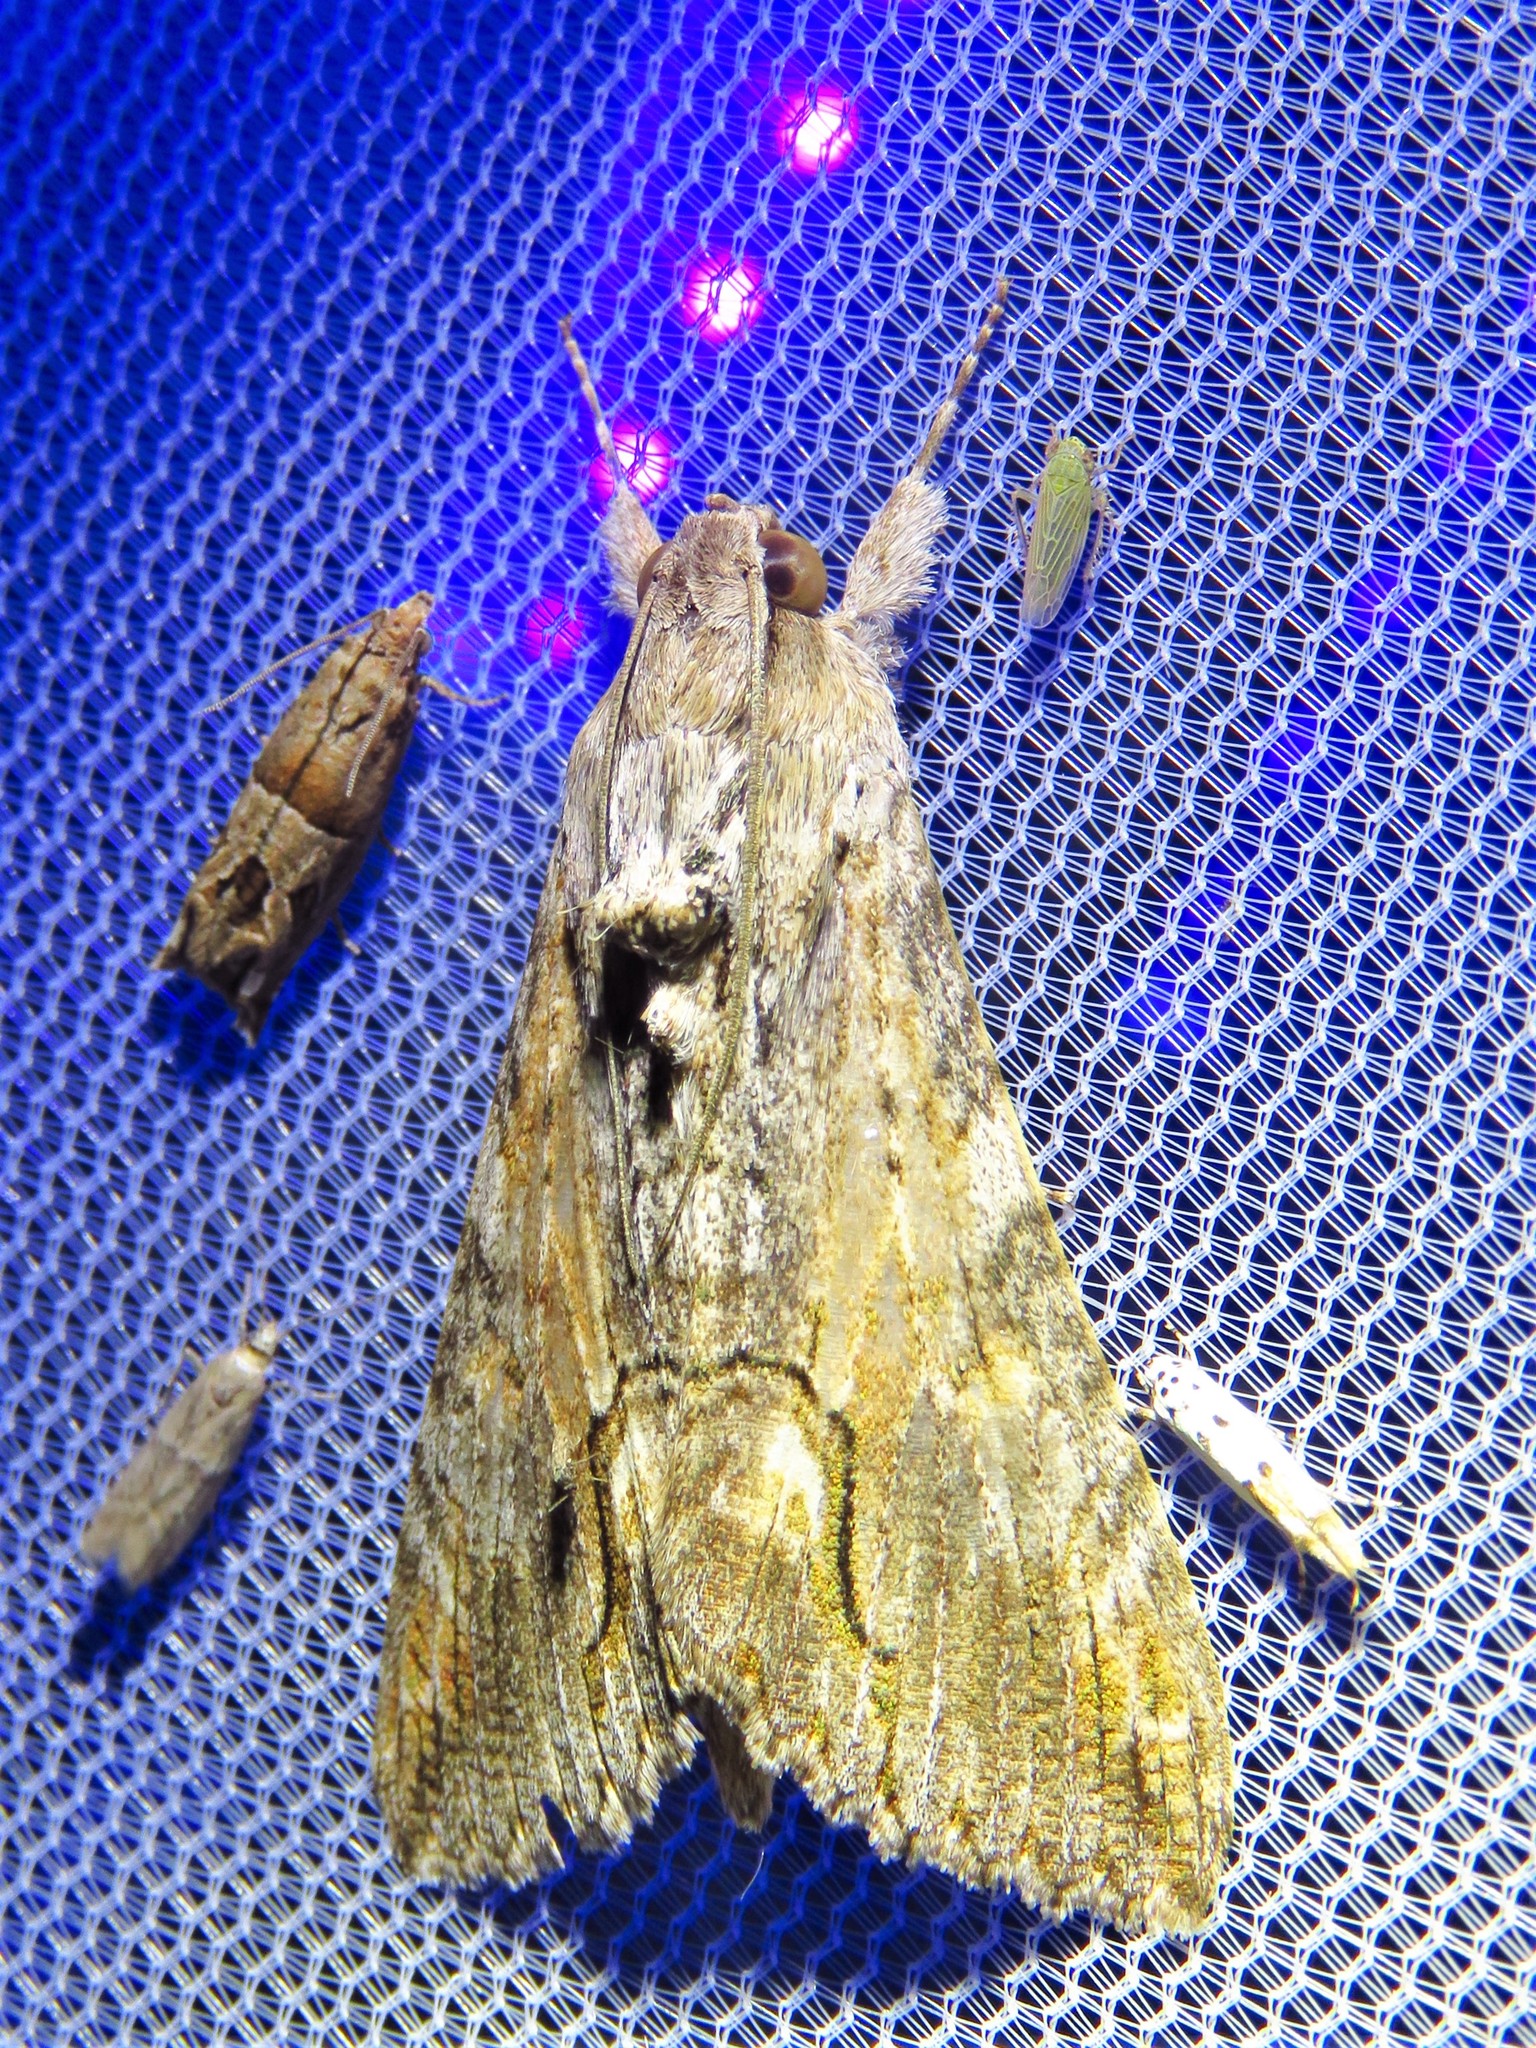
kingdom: Animalia
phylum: Arthropoda
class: Insecta
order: Lepidoptera
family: Erebidae
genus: Melipotis
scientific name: Melipotis acontioides
